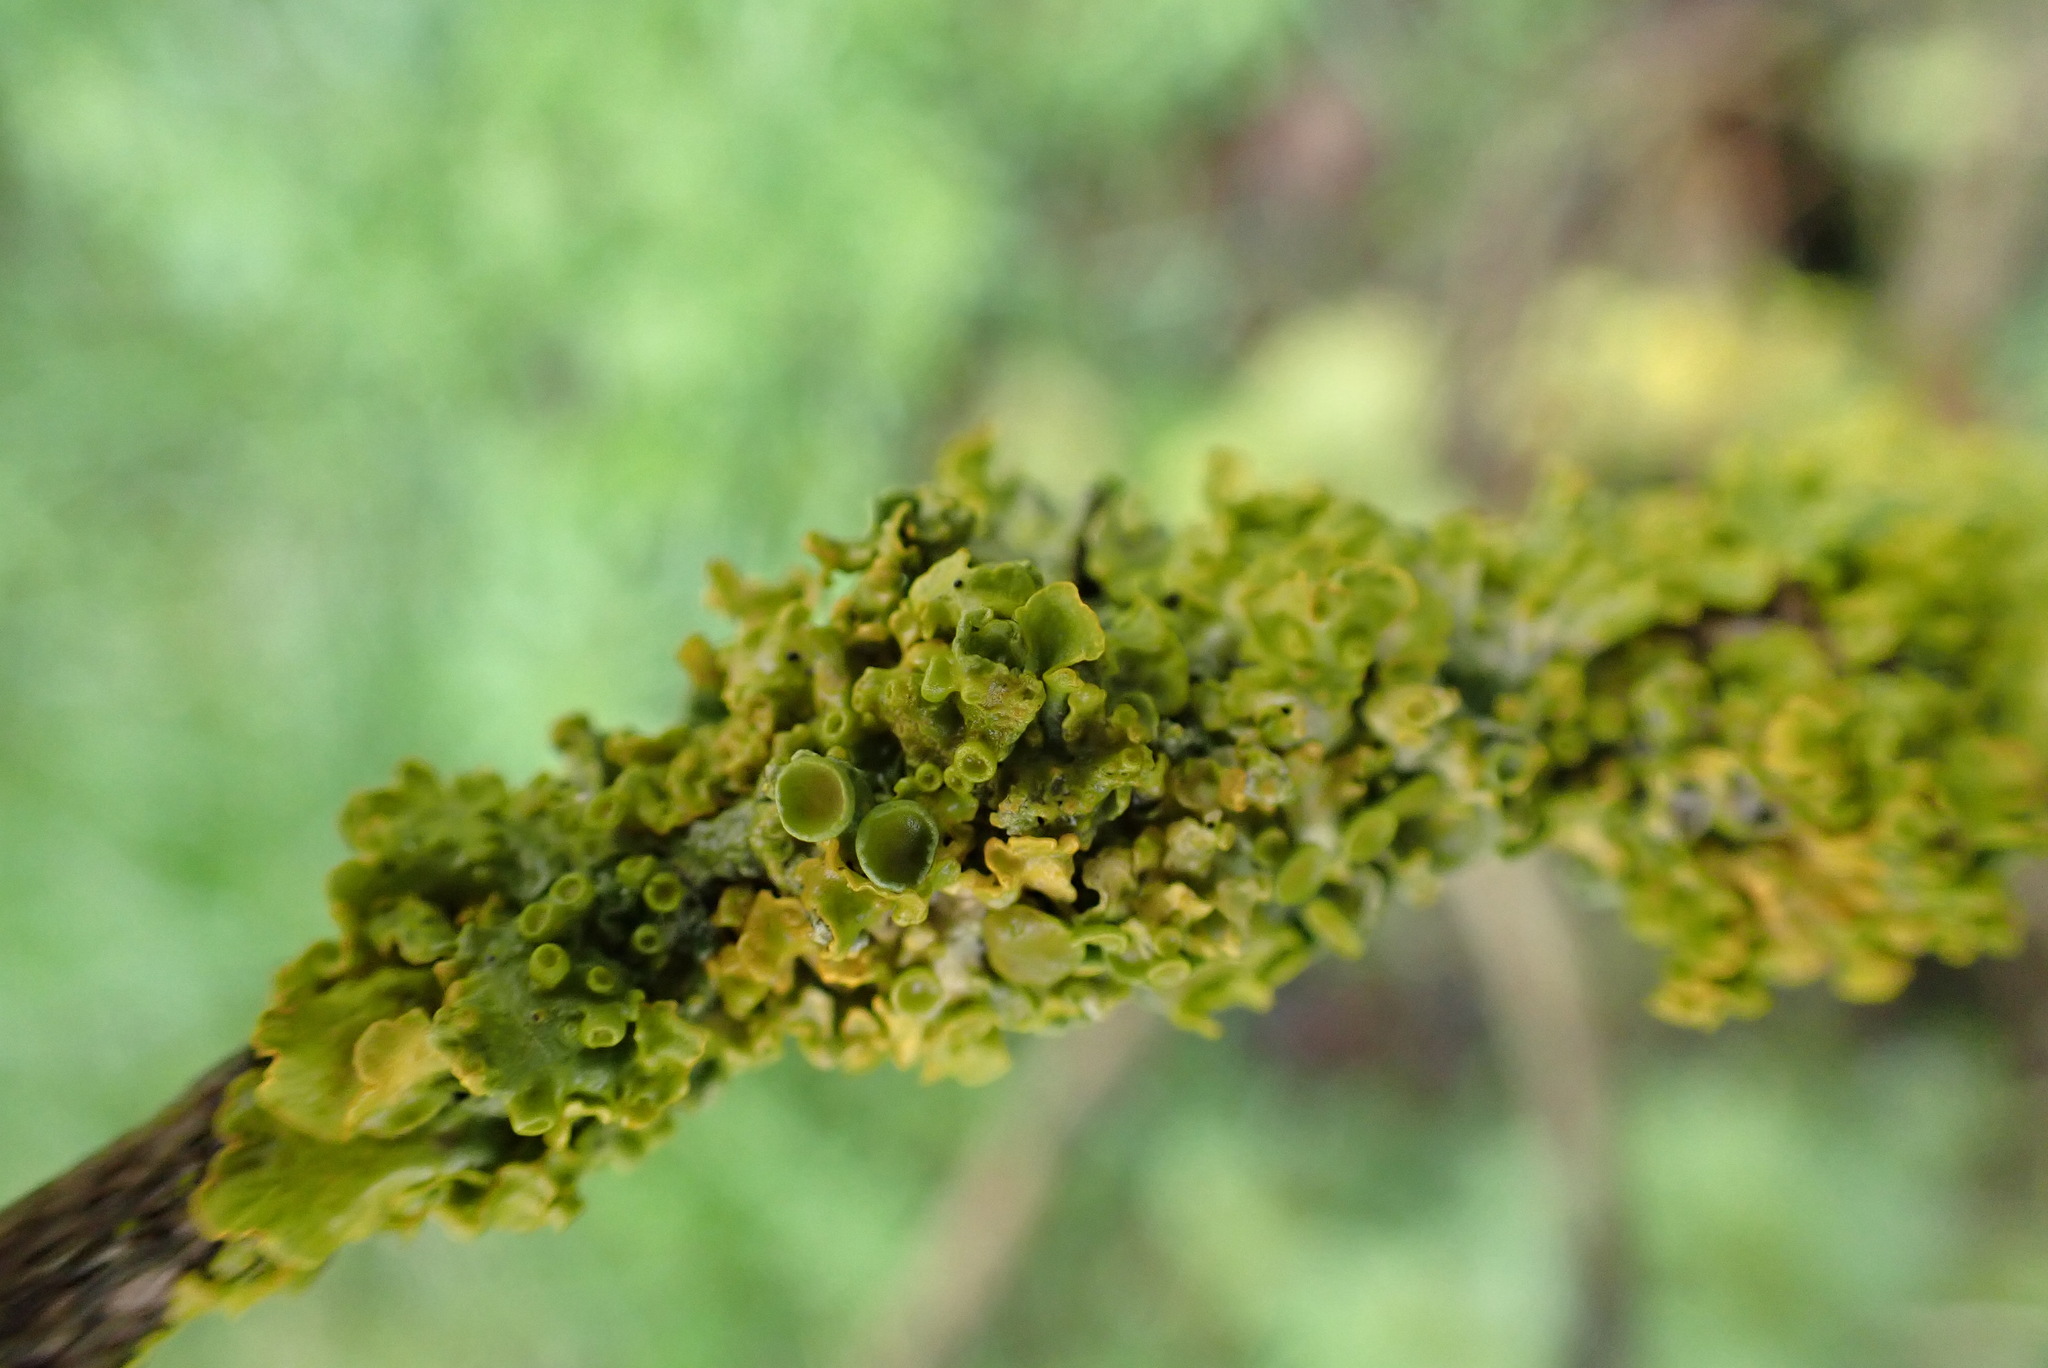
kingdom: Fungi
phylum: Ascomycota
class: Lecanoromycetes
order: Teloschistales
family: Teloschistaceae
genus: Xanthoria
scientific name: Xanthoria parietina
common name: Common orange lichen
